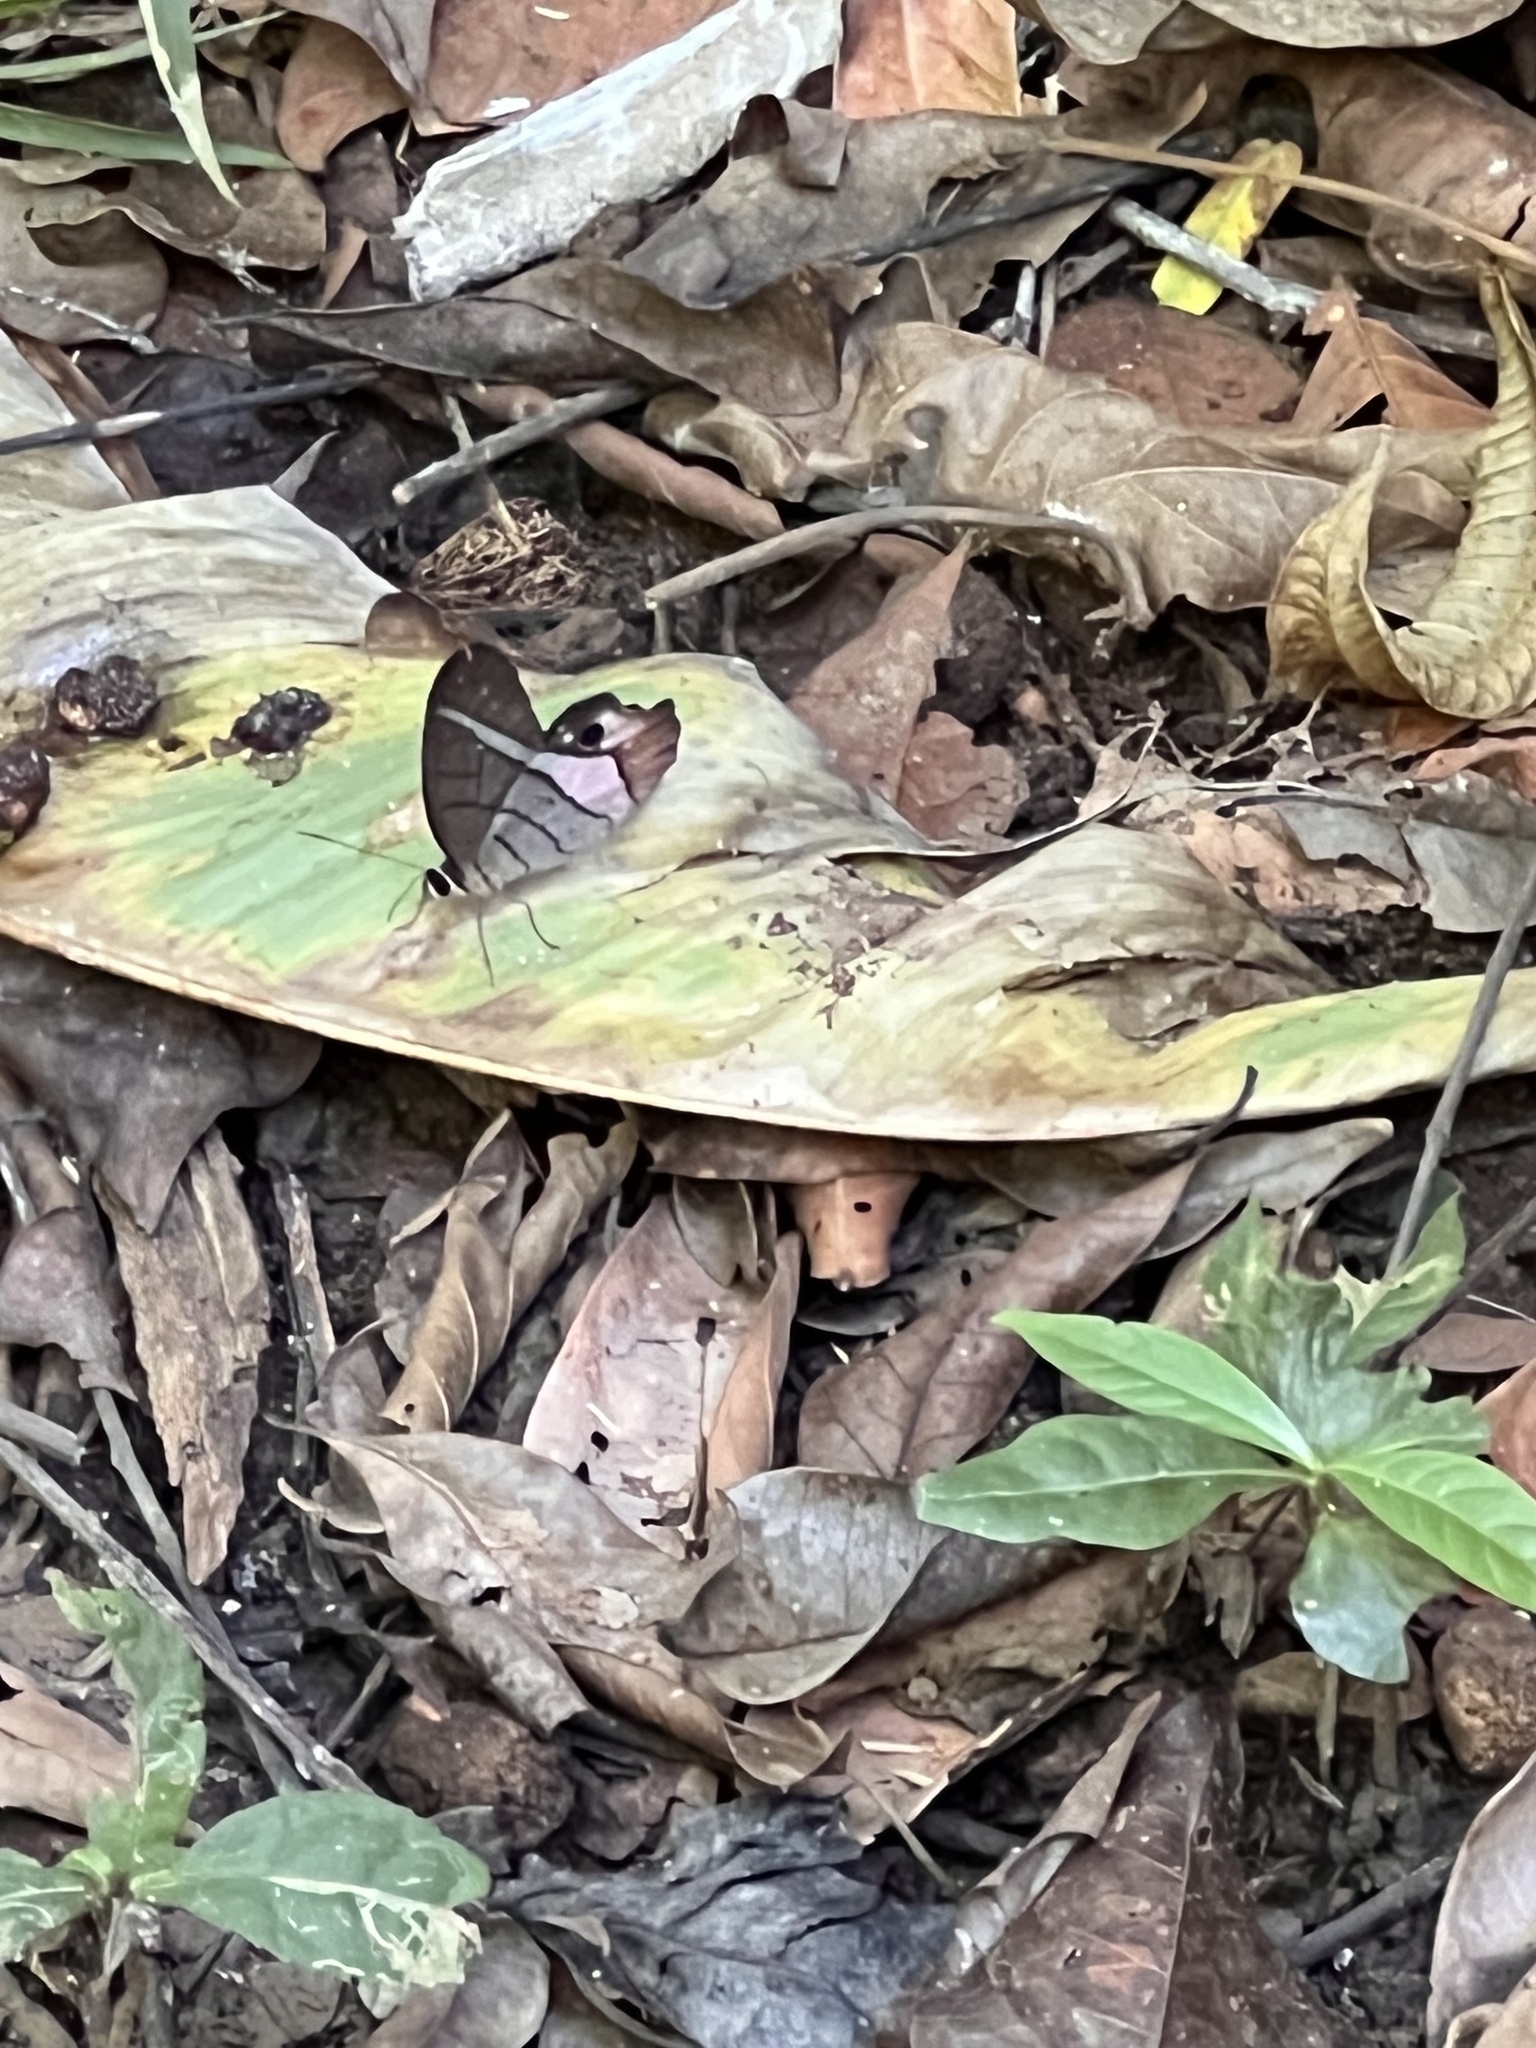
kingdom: Animalia
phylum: Arthropoda
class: Insecta
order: Lepidoptera
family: Nymphalidae
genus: Pierella
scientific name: Pierella helvina
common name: Red-washed satyr
